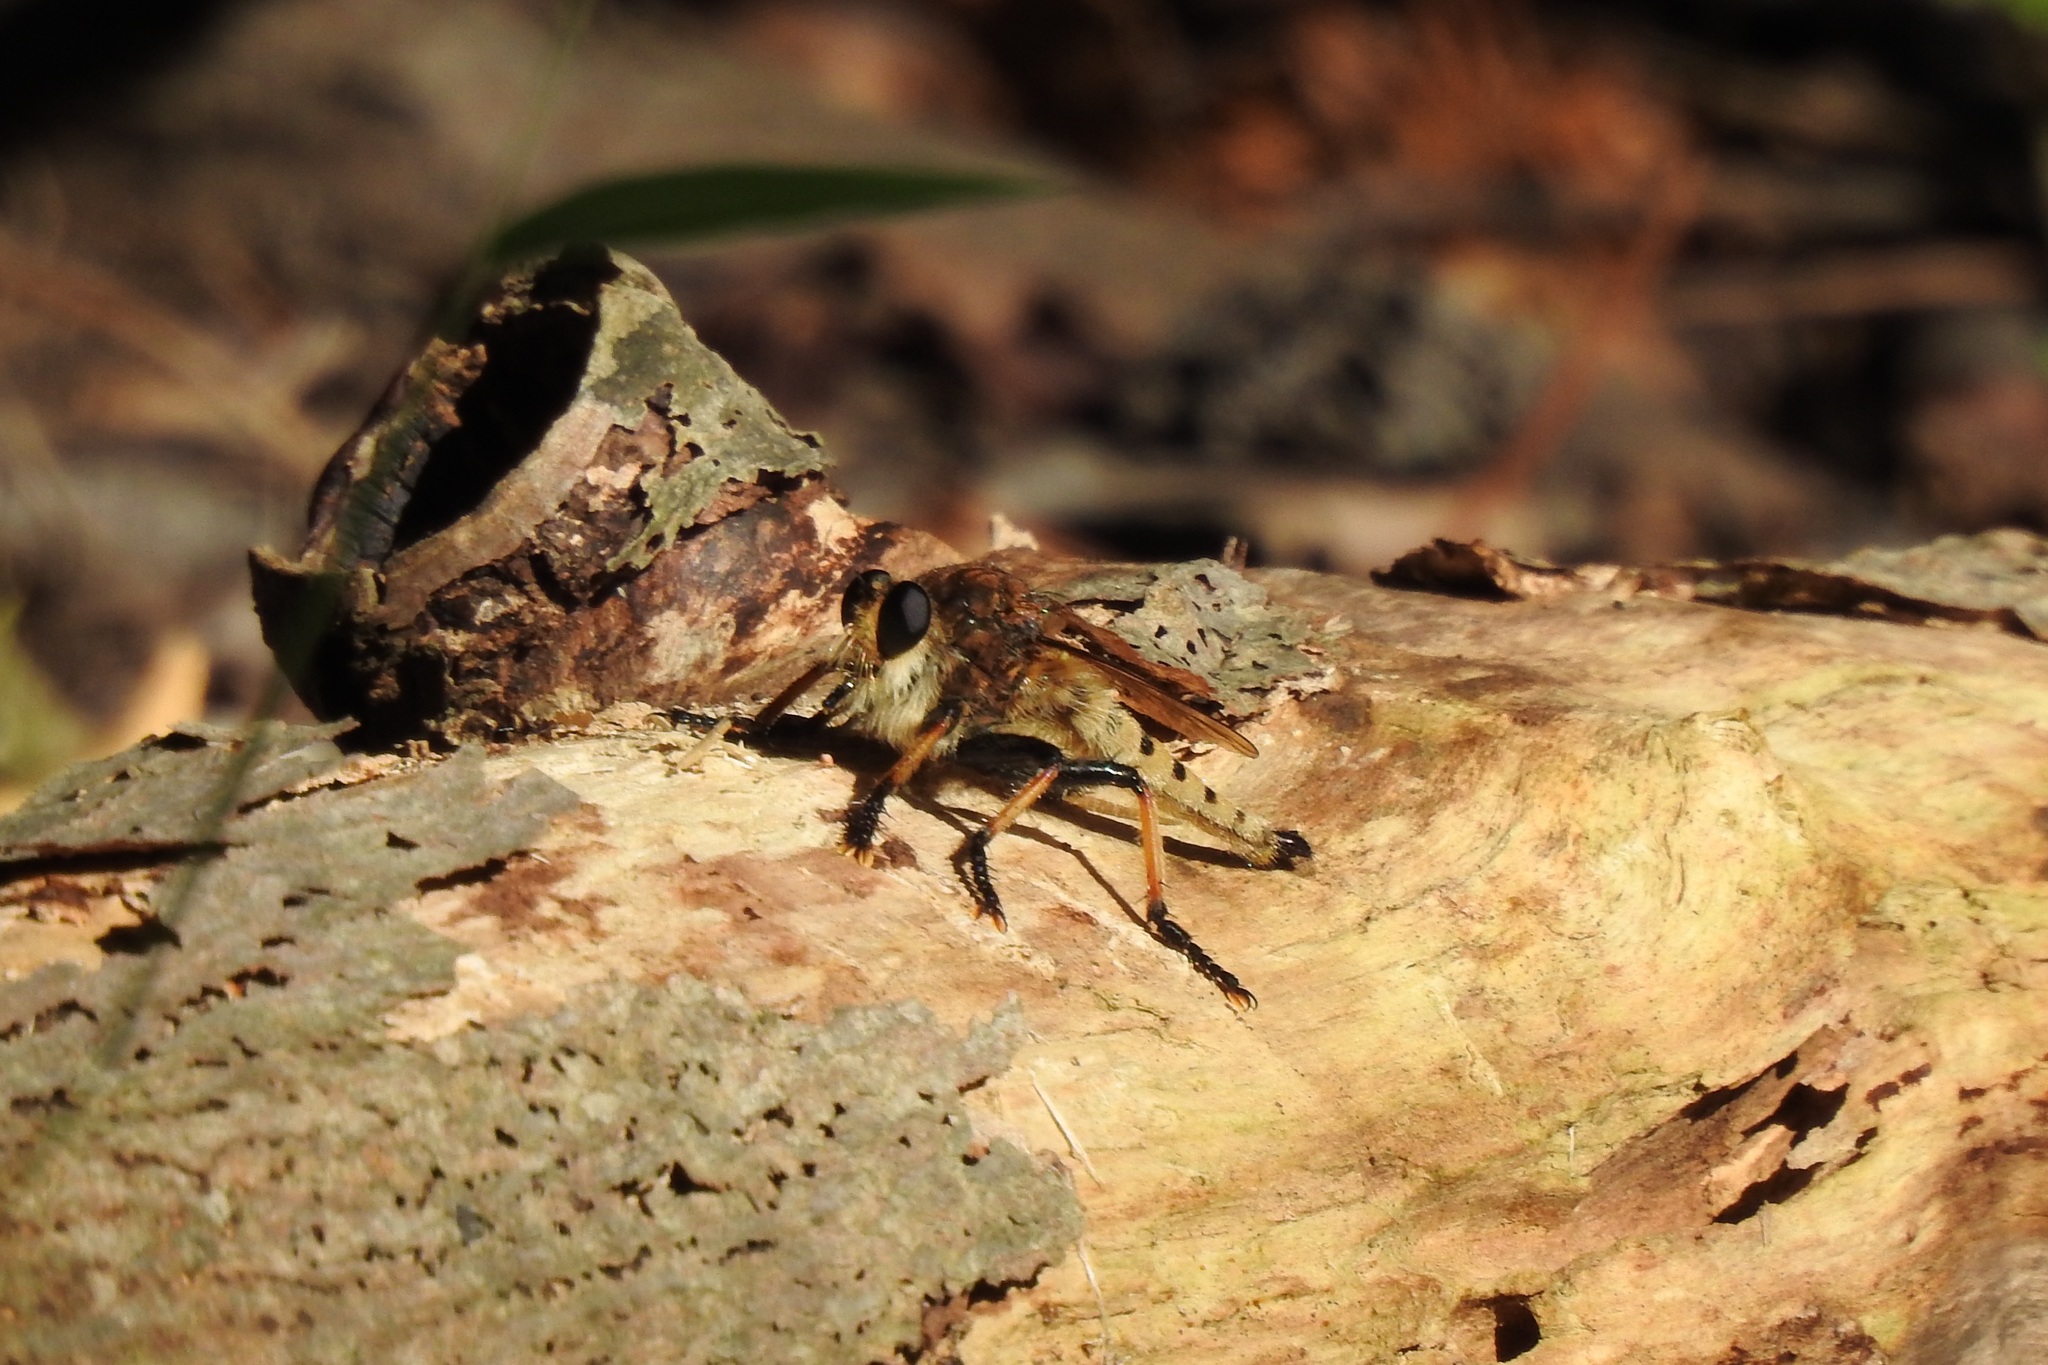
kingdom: Animalia
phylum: Arthropoda
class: Insecta
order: Diptera
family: Asilidae
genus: Promachus
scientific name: Promachus rufipes
